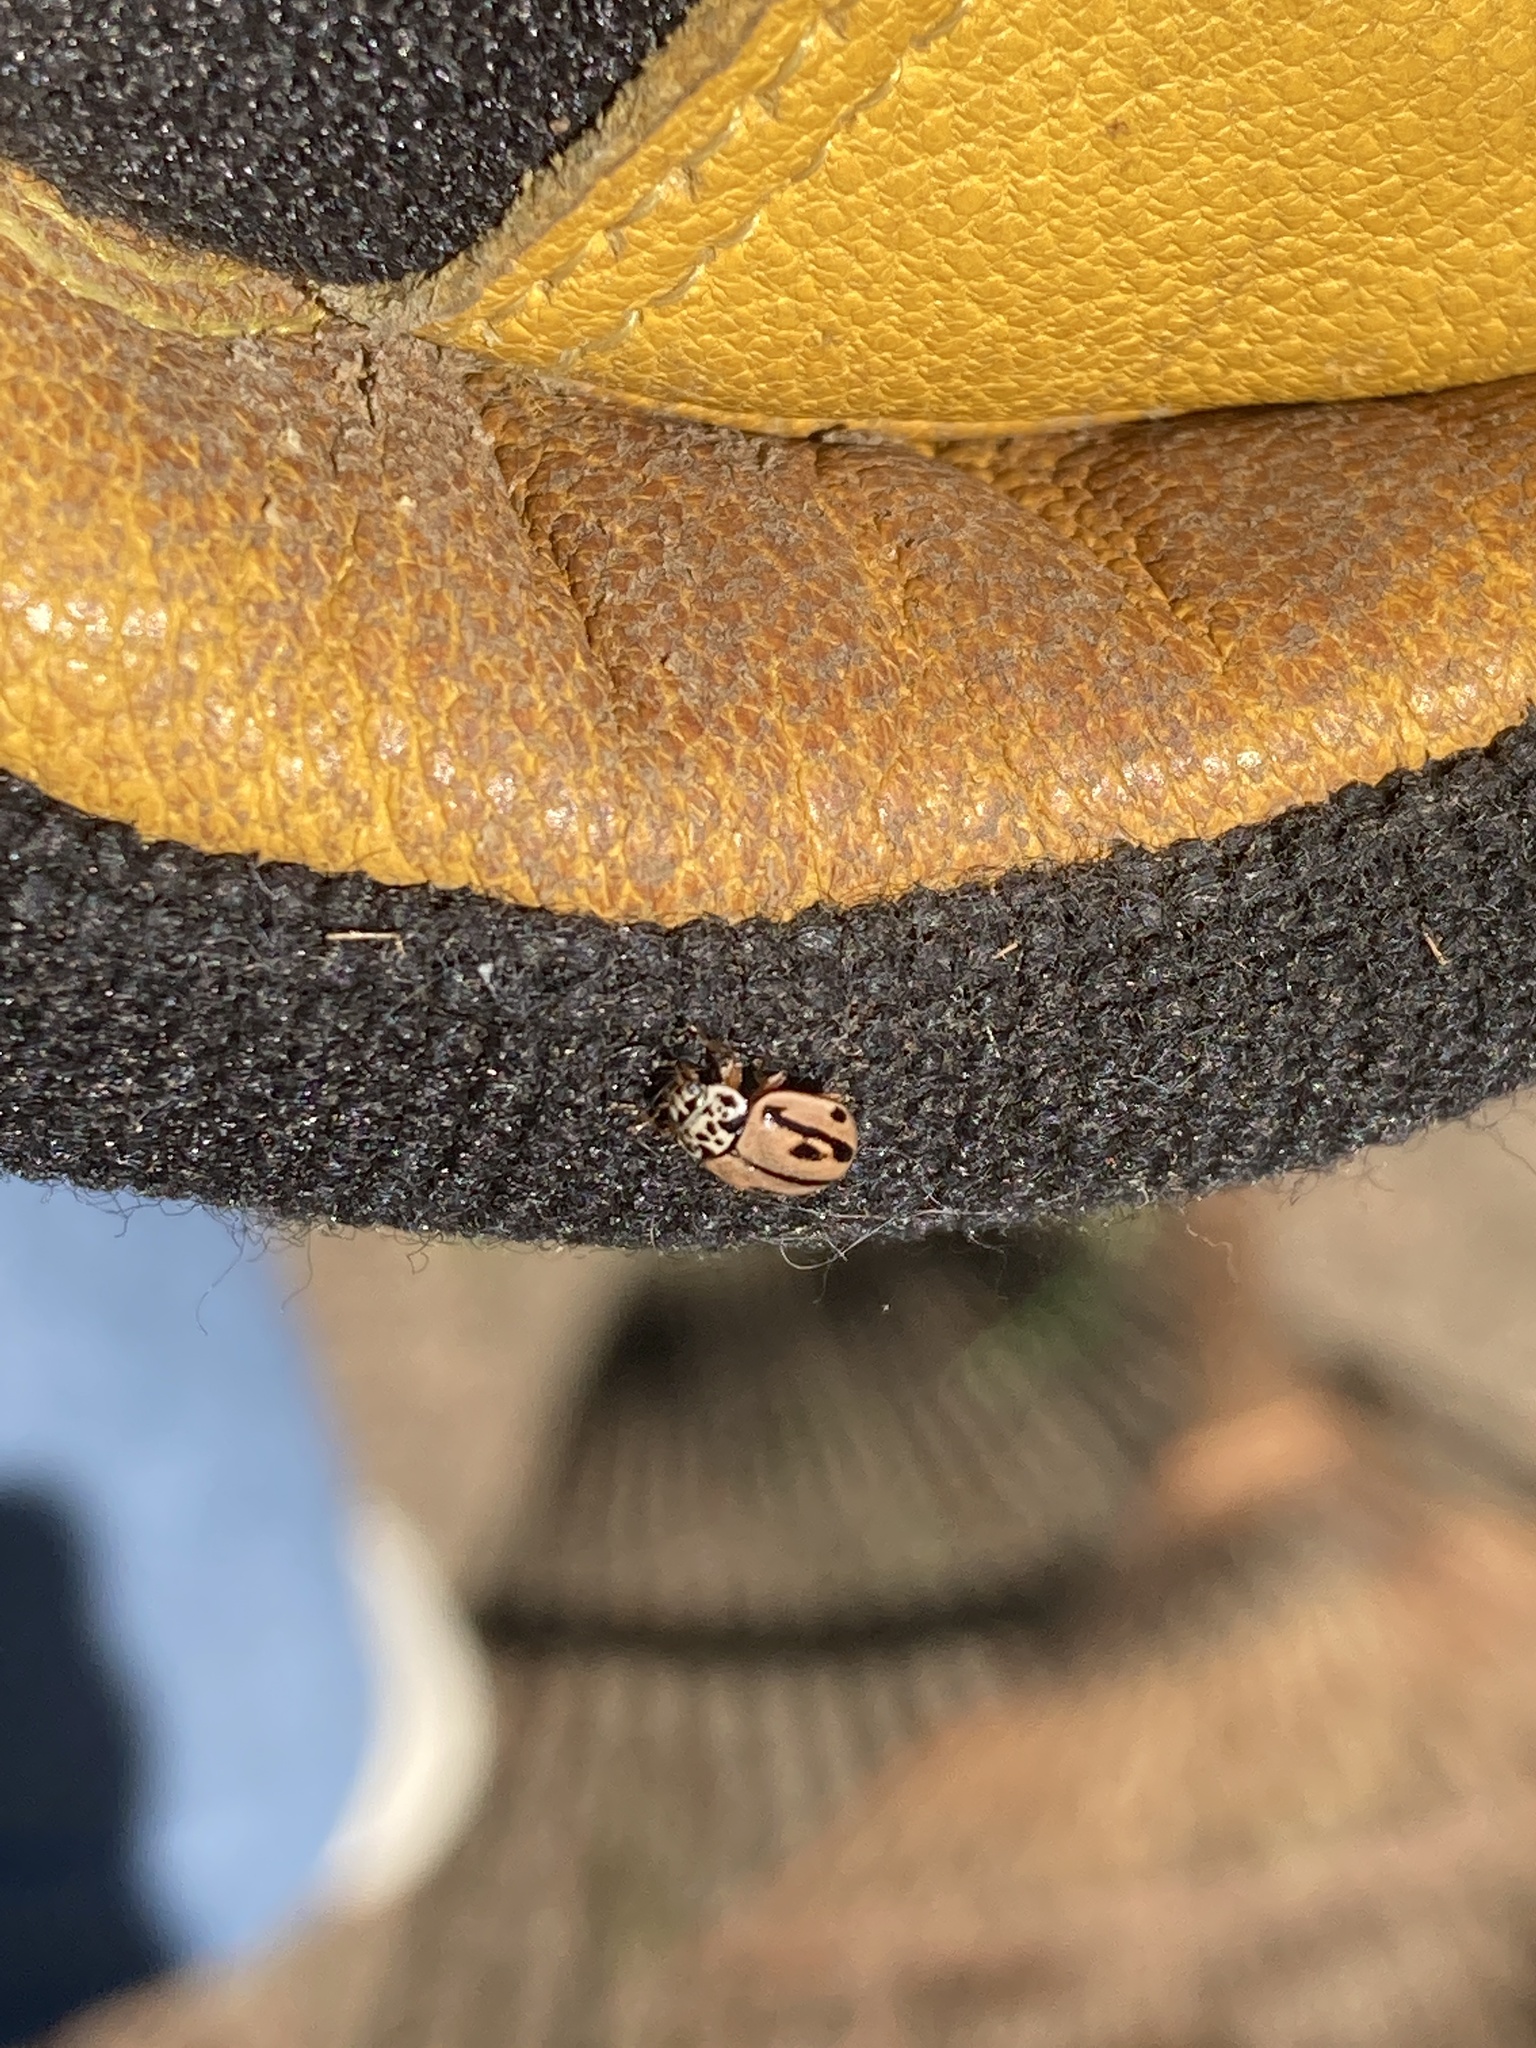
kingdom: Animalia
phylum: Arthropoda
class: Insecta
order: Coleoptera
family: Coccinellidae
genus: Mulsantina
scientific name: Mulsantina hudsonica
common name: Hudsonian ladybird
